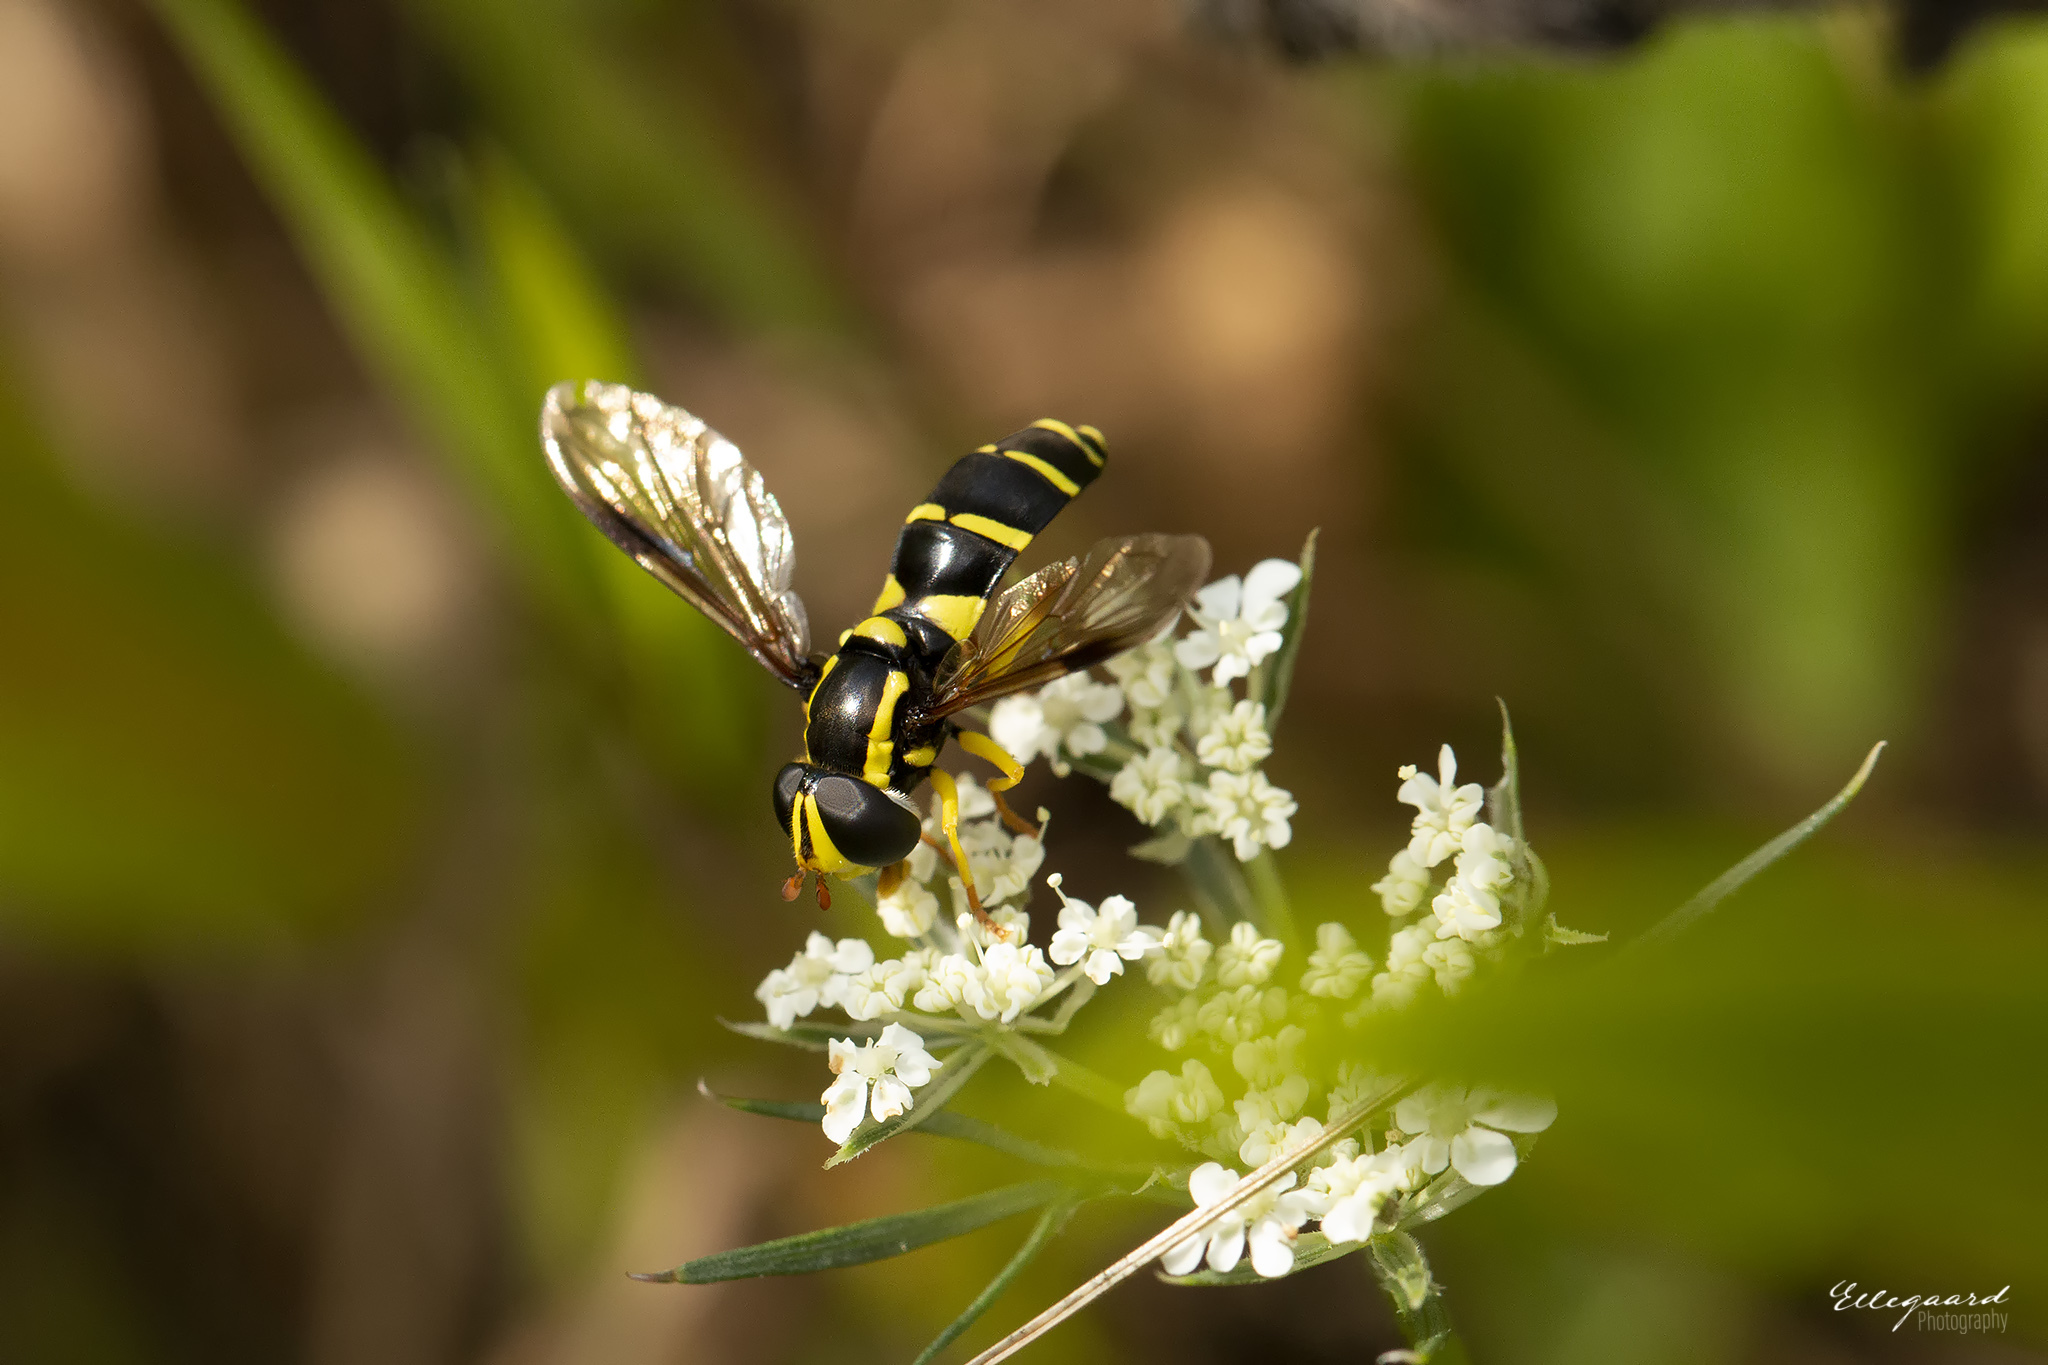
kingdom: Animalia
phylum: Arthropoda
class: Insecta
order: Diptera
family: Syrphidae
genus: Philhelius
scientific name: Philhelius pedissequum
